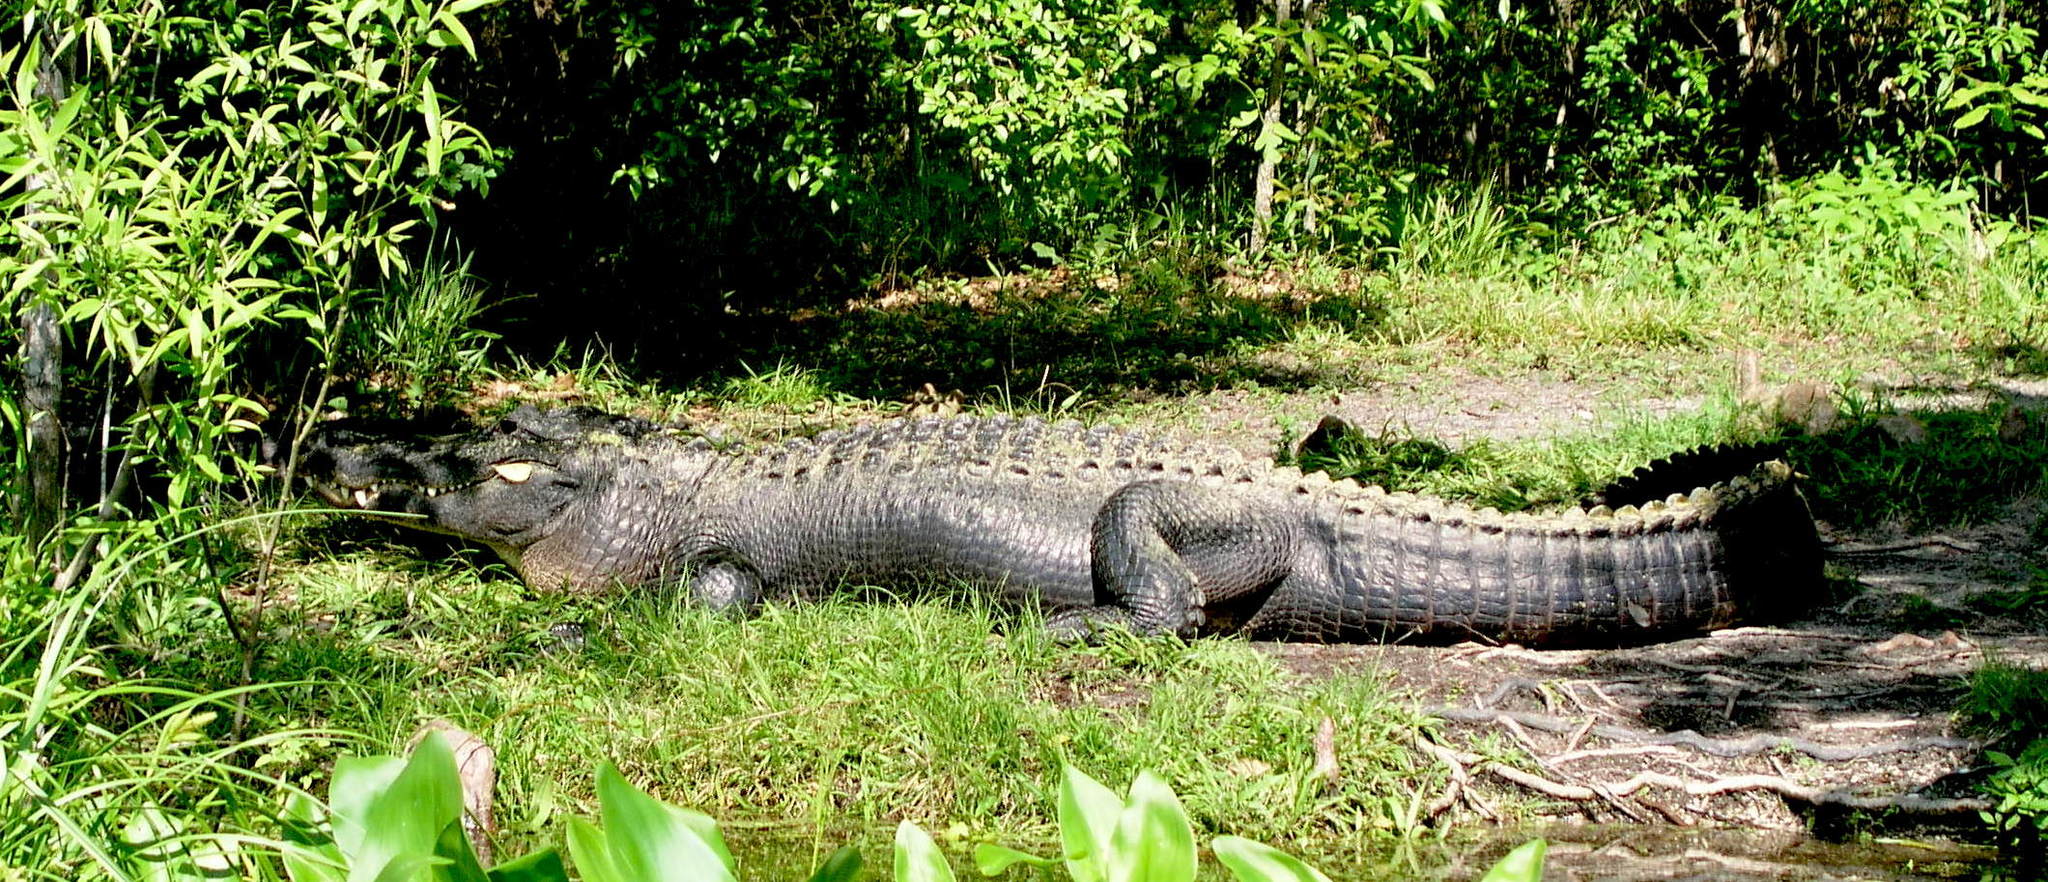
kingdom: Animalia
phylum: Chordata
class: Crocodylia
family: Alligatoridae
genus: Alligator
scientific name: Alligator mississippiensis
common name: American alligator
